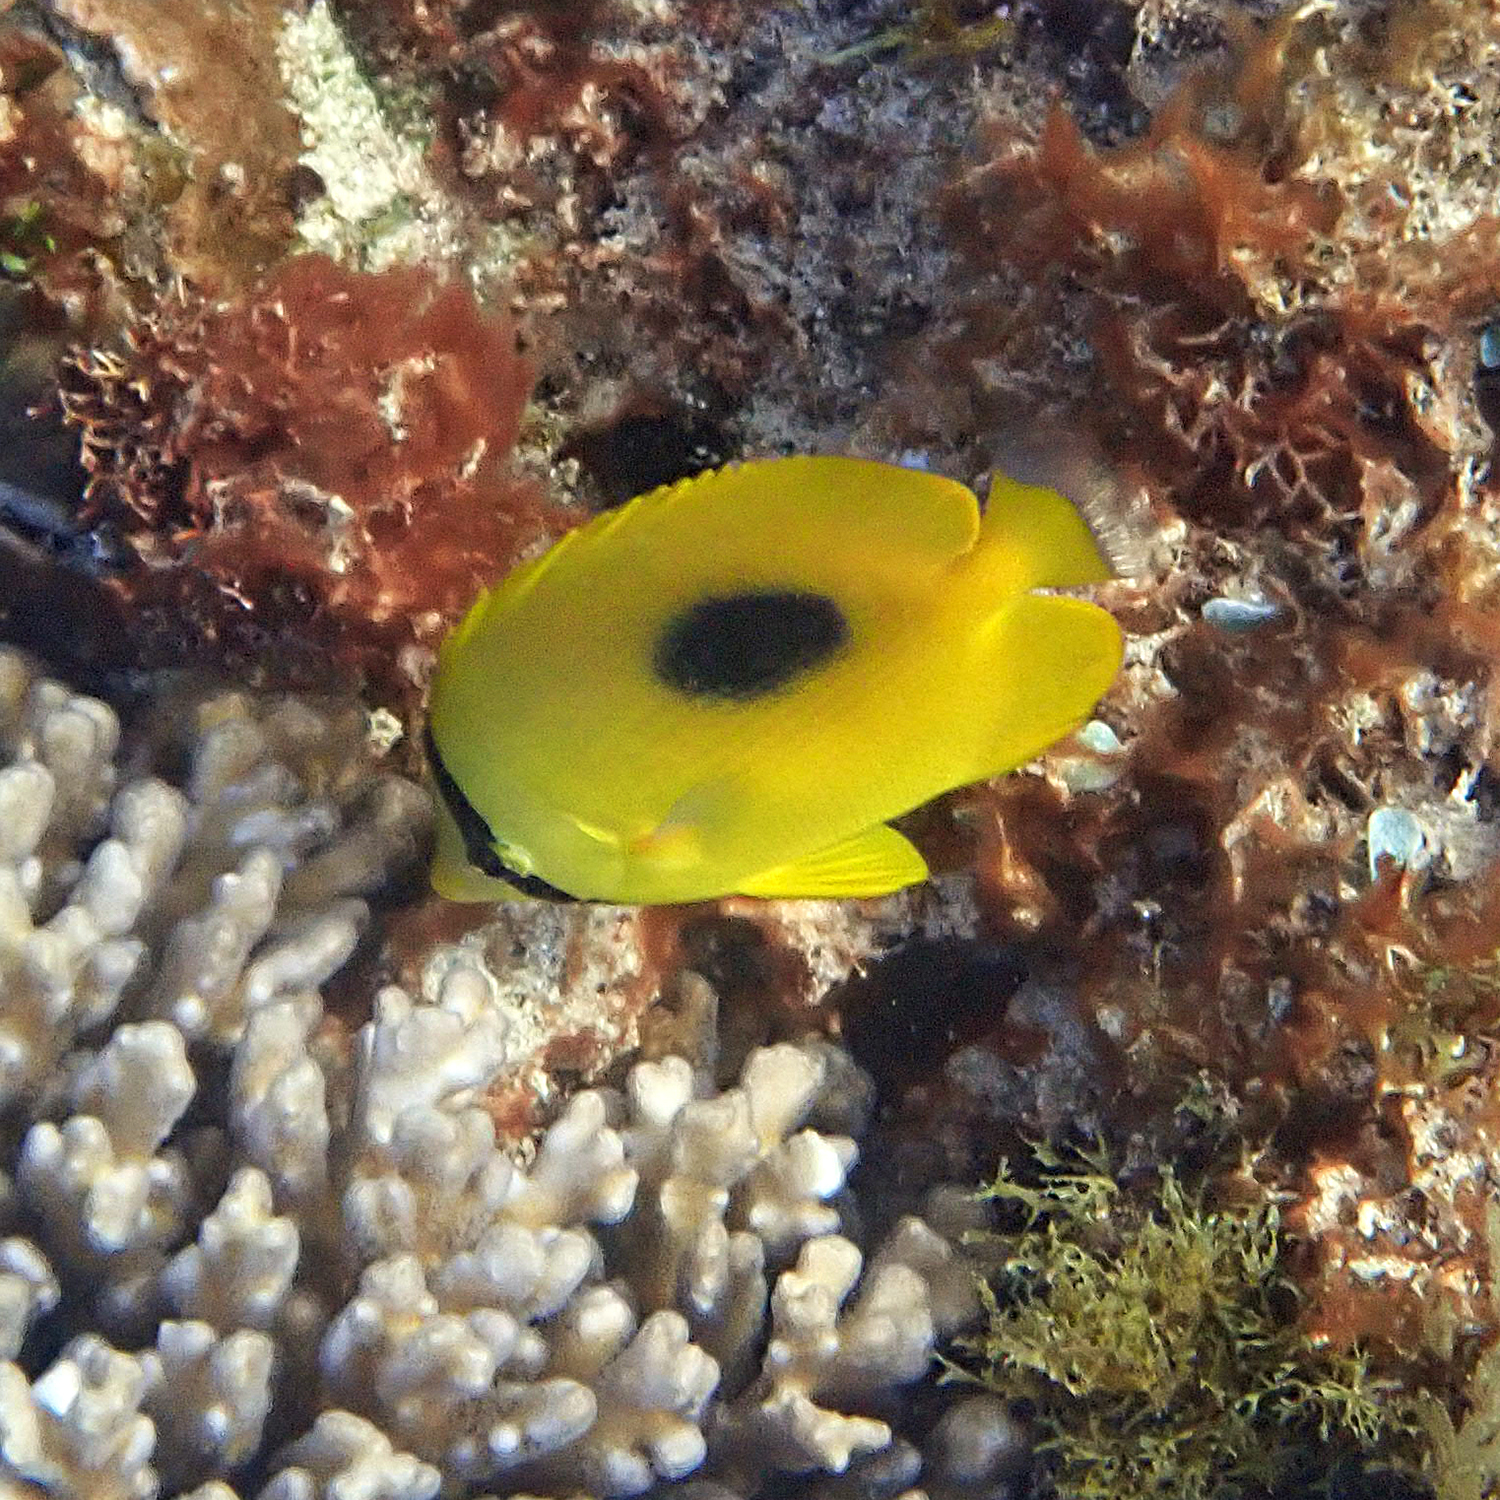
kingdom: Animalia
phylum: Chordata
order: Perciformes
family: Chaetodontidae
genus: Chaetodon
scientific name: Chaetodon speculum
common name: Mirror butterflyfish
